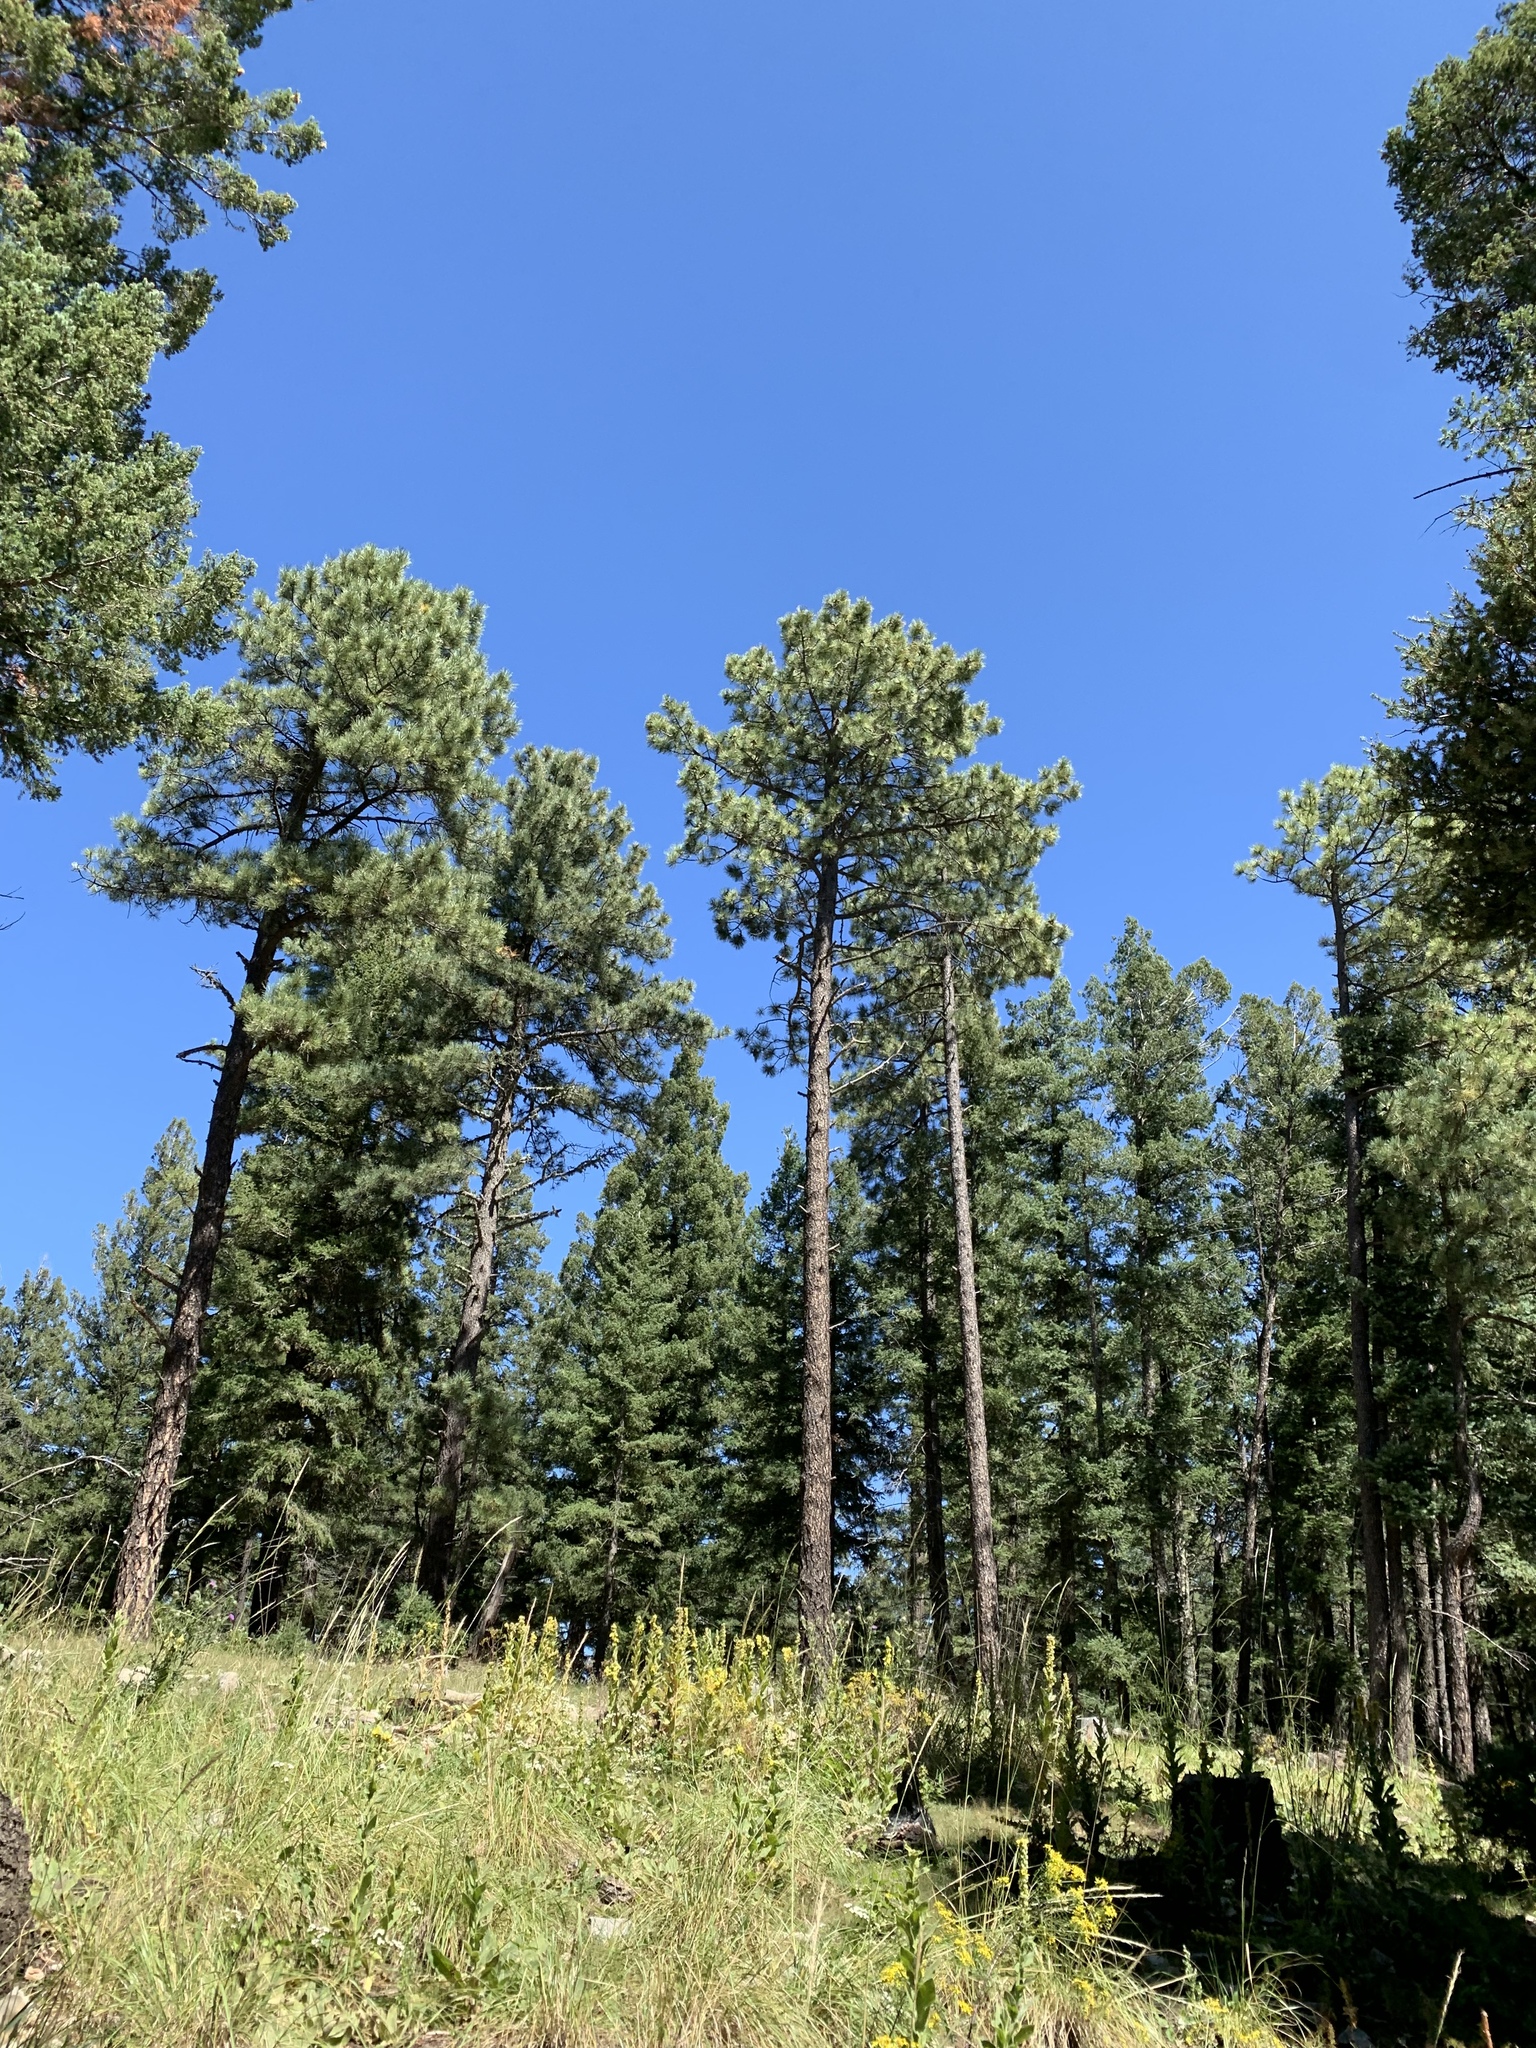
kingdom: Plantae
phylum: Tracheophyta
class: Pinopsida
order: Pinales
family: Pinaceae
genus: Pinus
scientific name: Pinus ponderosa
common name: Western yellow-pine
